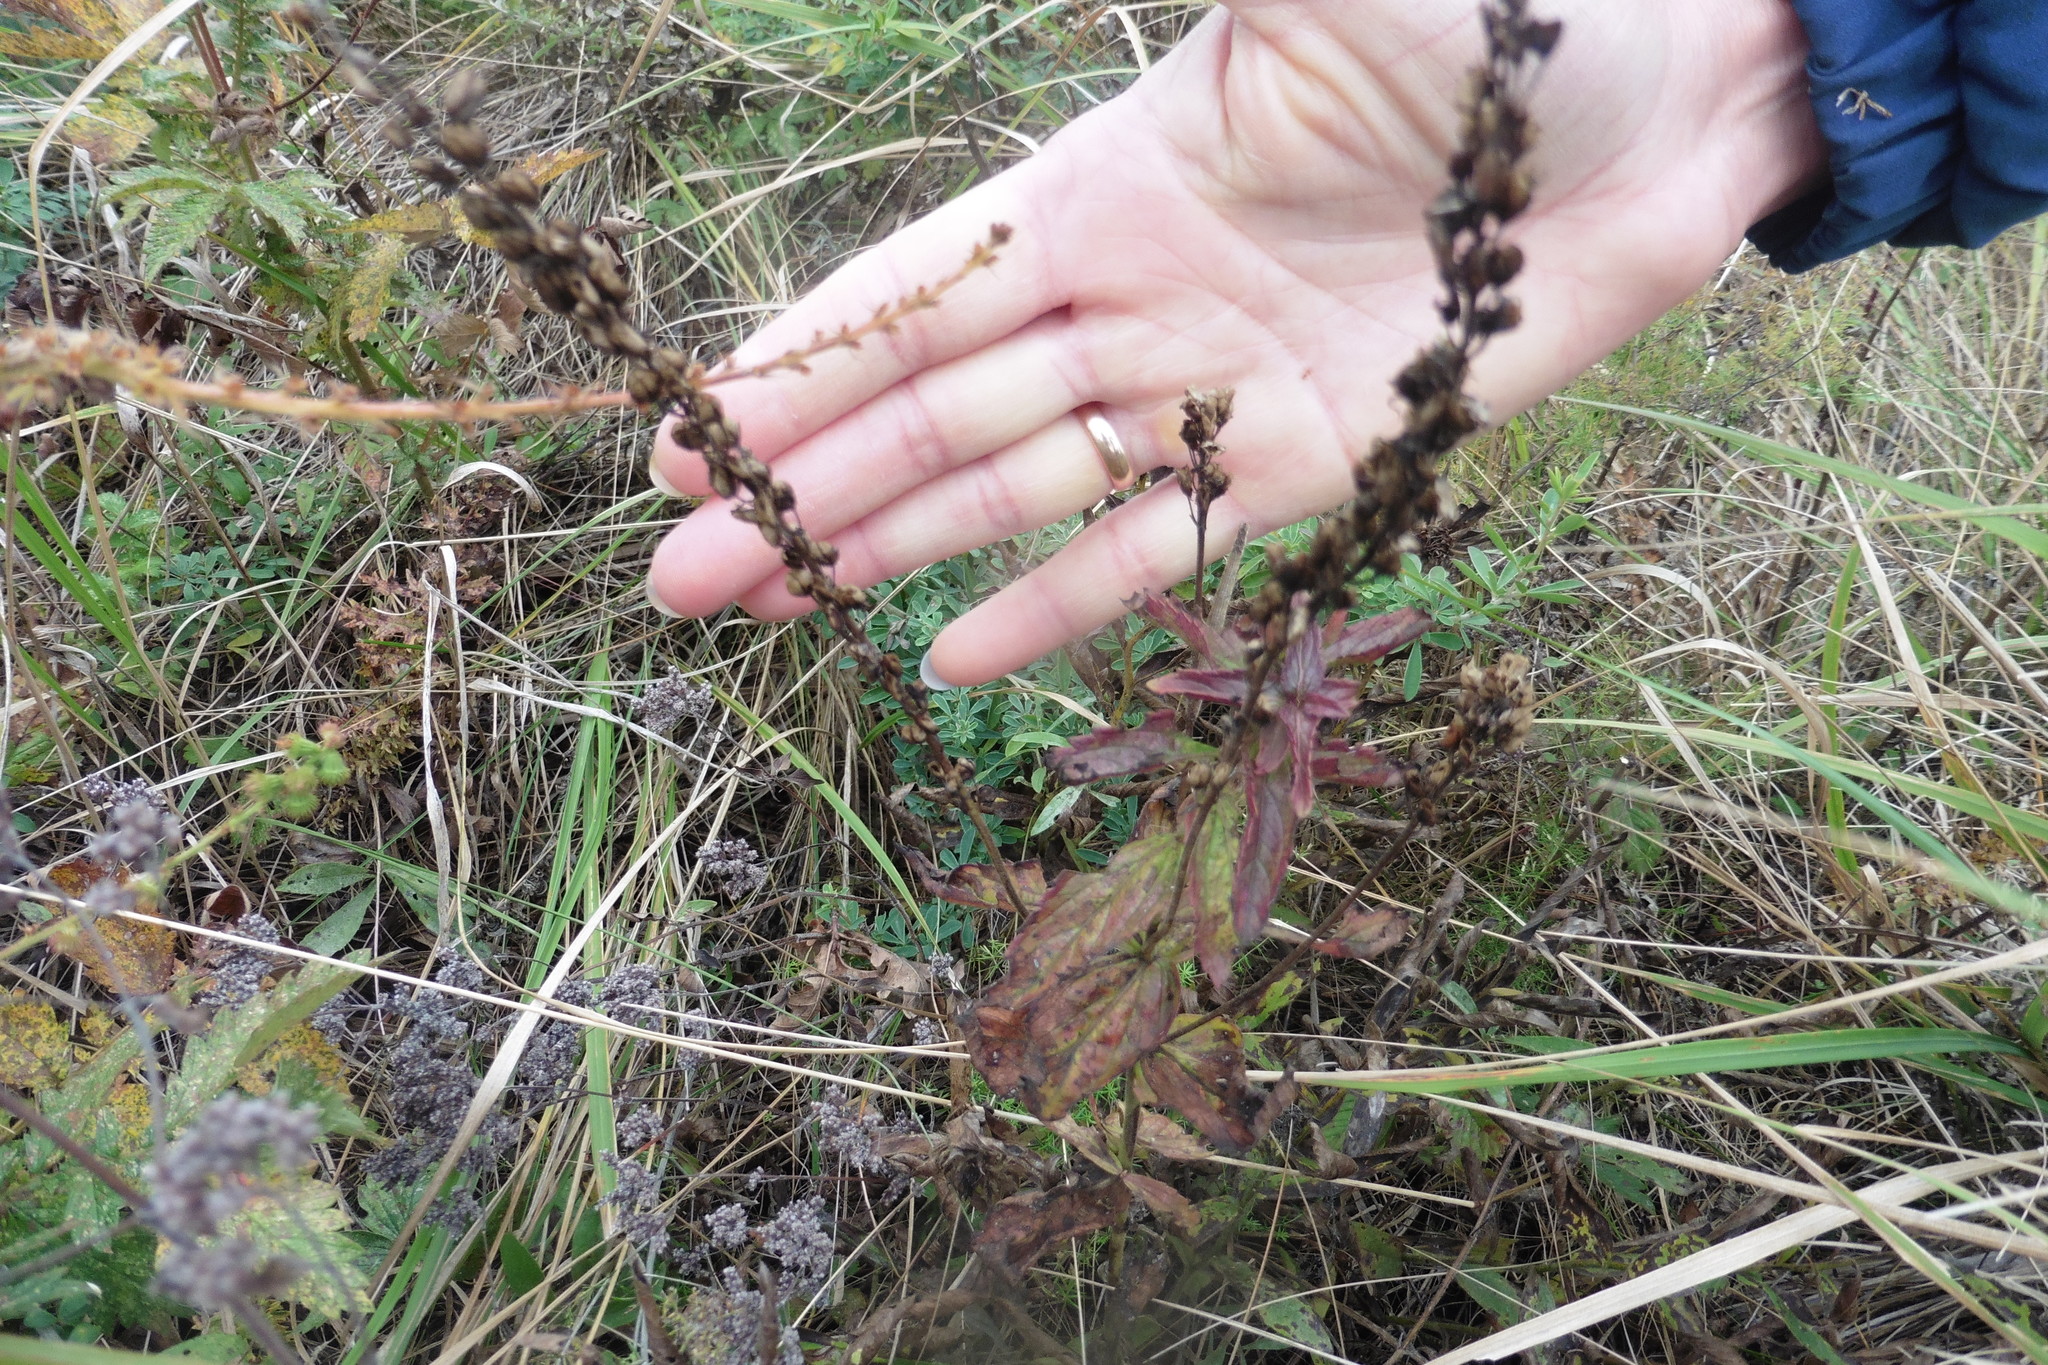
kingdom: Plantae
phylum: Tracheophyta
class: Magnoliopsida
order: Lamiales
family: Plantaginaceae
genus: Veronica
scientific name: Veronica teucrium
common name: Large speedwell
